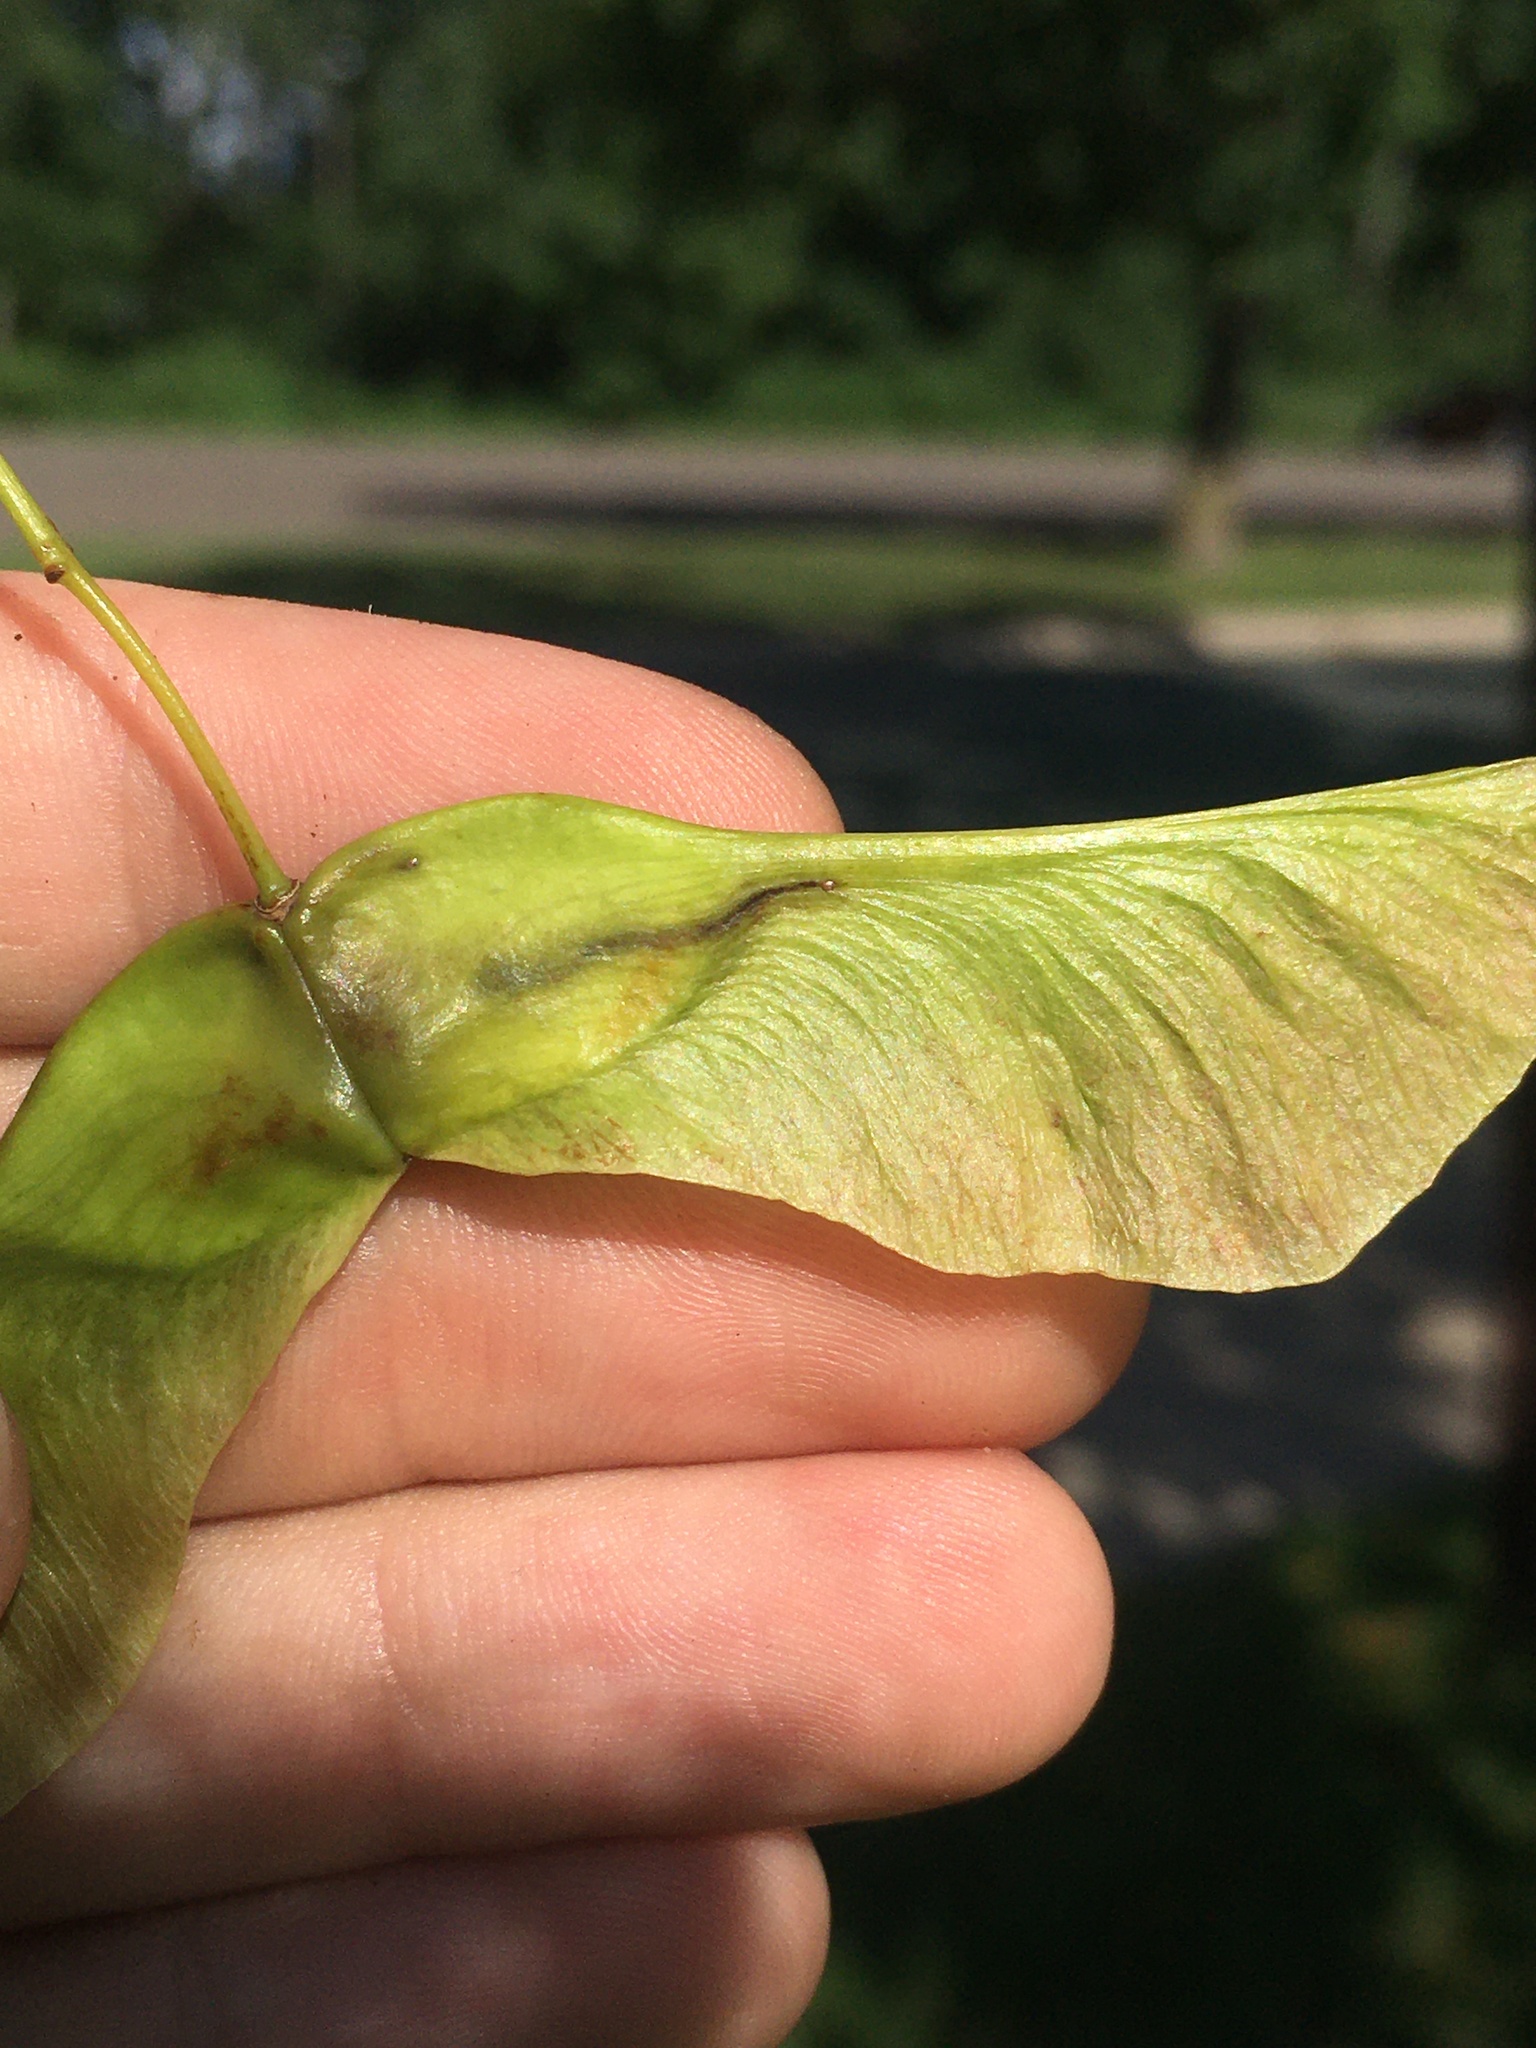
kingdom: Animalia
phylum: Arthropoda
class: Insecta
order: Lepidoptera
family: Nepticulidae
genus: Etainia
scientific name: Etainia sericopeza
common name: Leafminer
